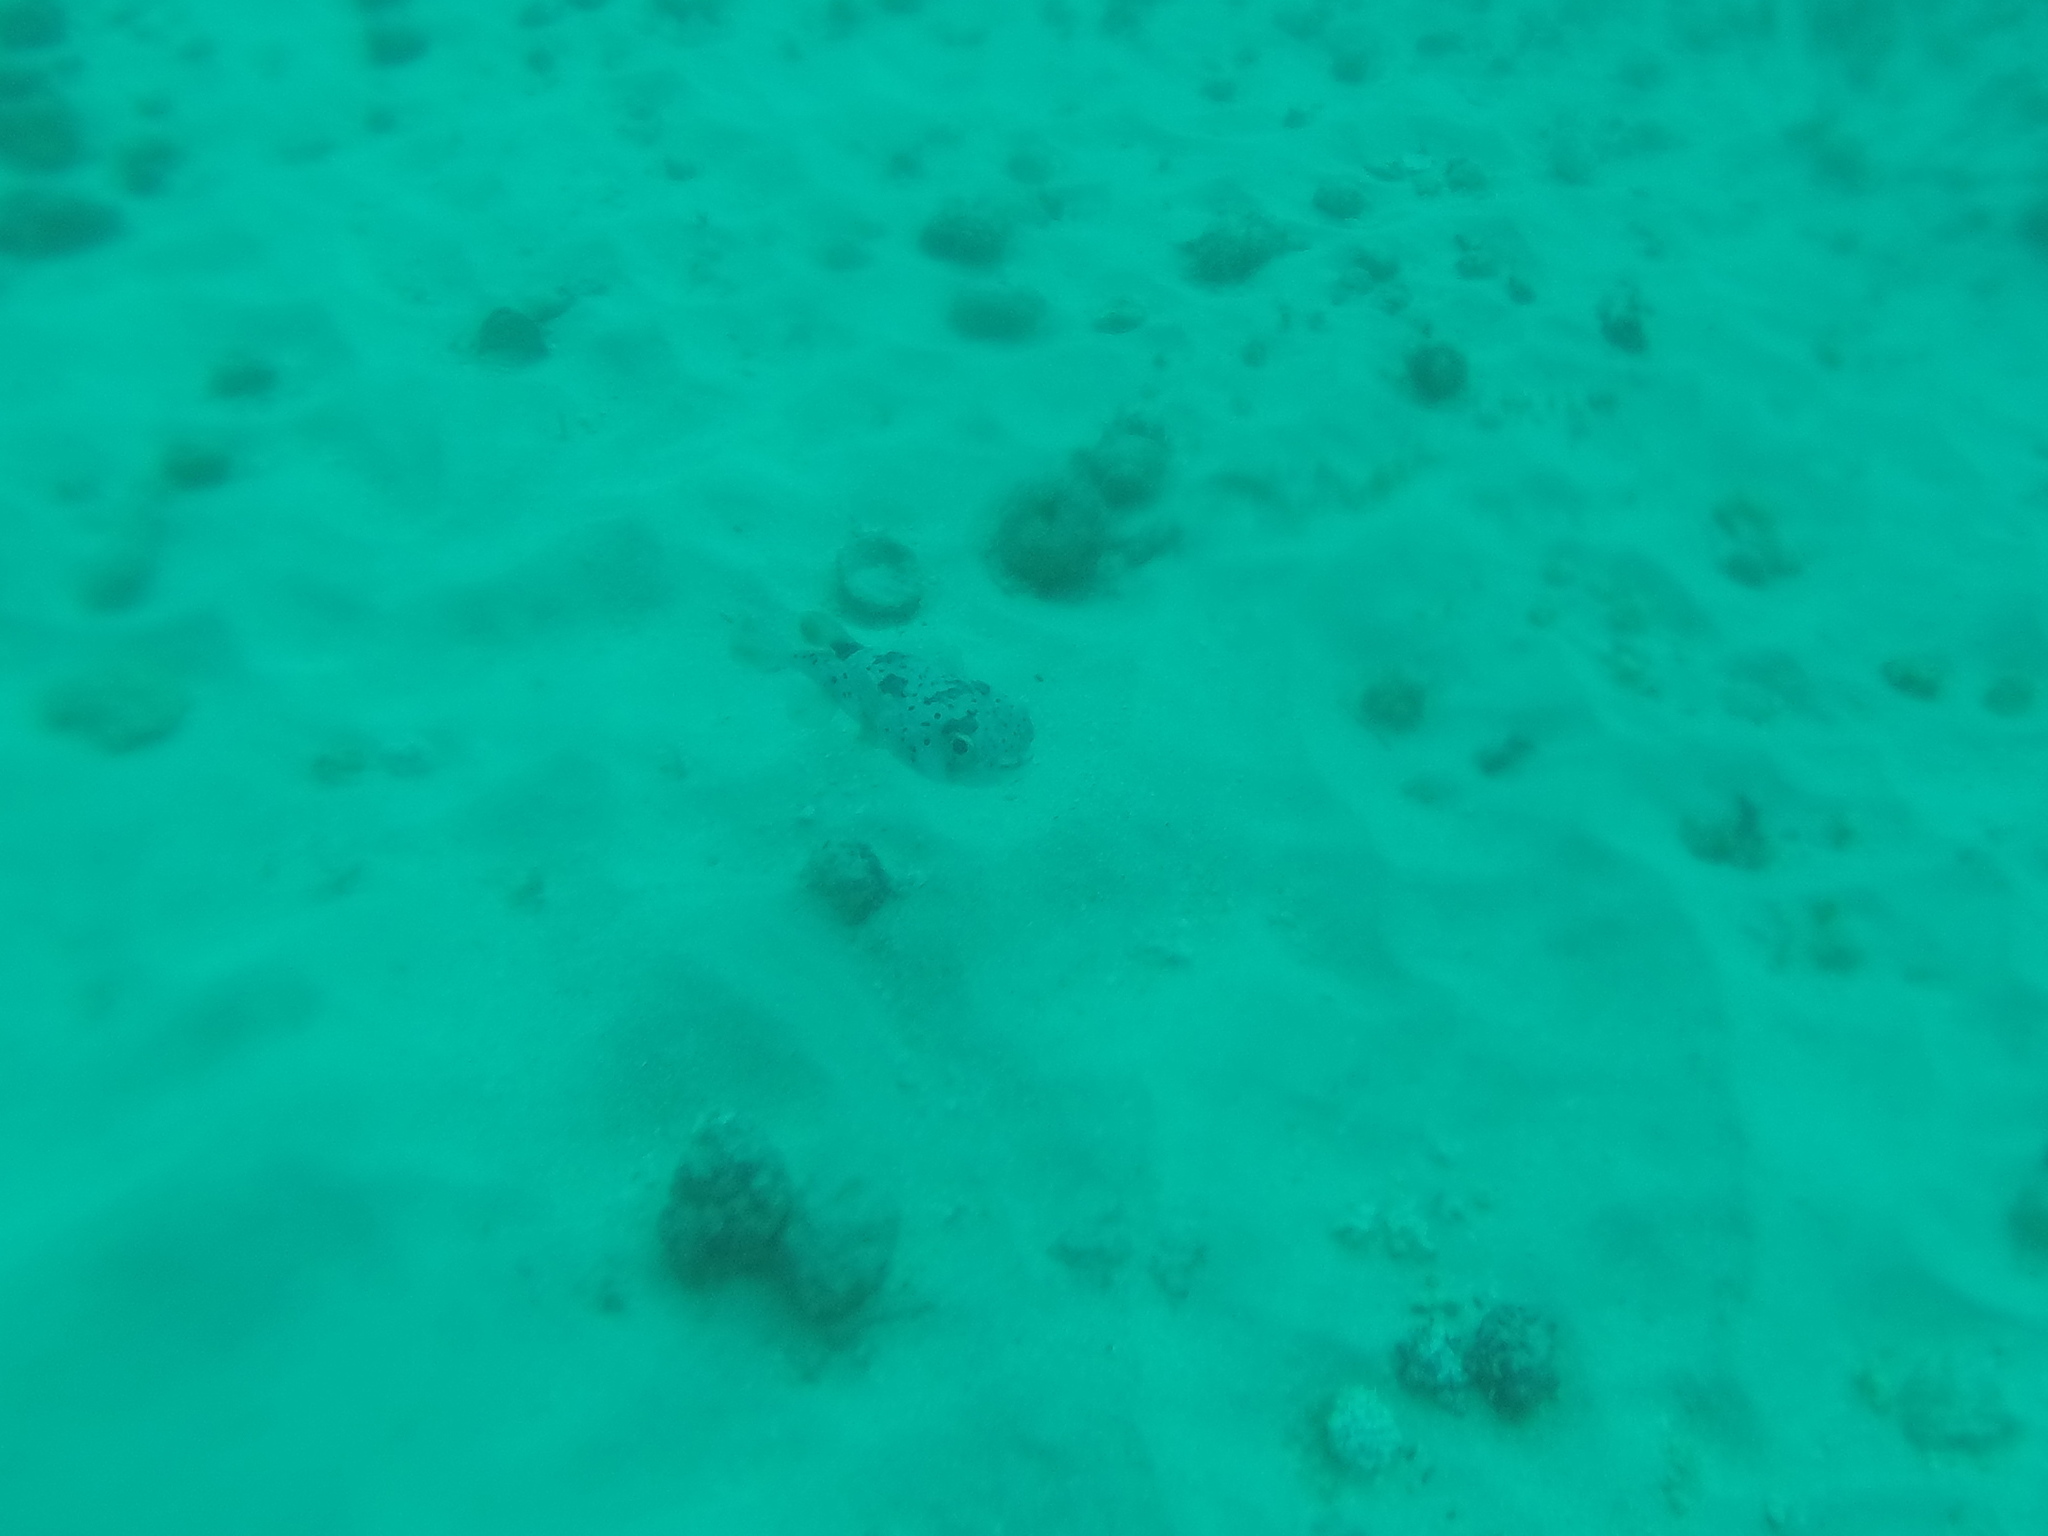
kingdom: Animalia
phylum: Chordata
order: Tetraodontiformes
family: Diodontidae
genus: Diodon
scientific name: Diodon holocanthus
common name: Balloonfish
